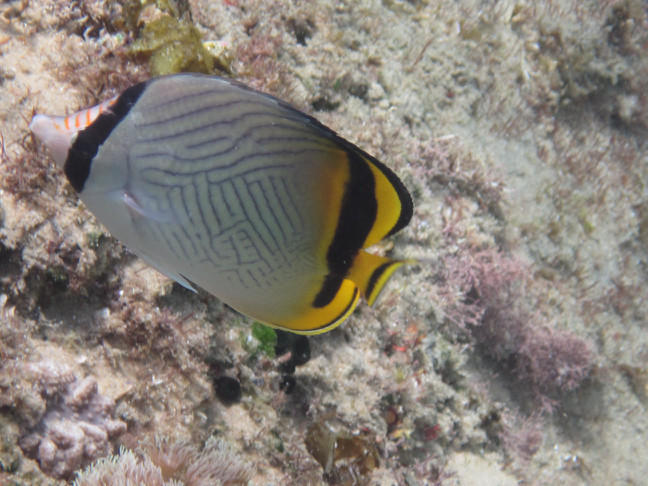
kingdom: Animalia
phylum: Chordata
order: Perciformes
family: Chaetodontidae
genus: Chaetodon
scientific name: Chaetodon vagabundus
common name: Vagabond butterflyfish
